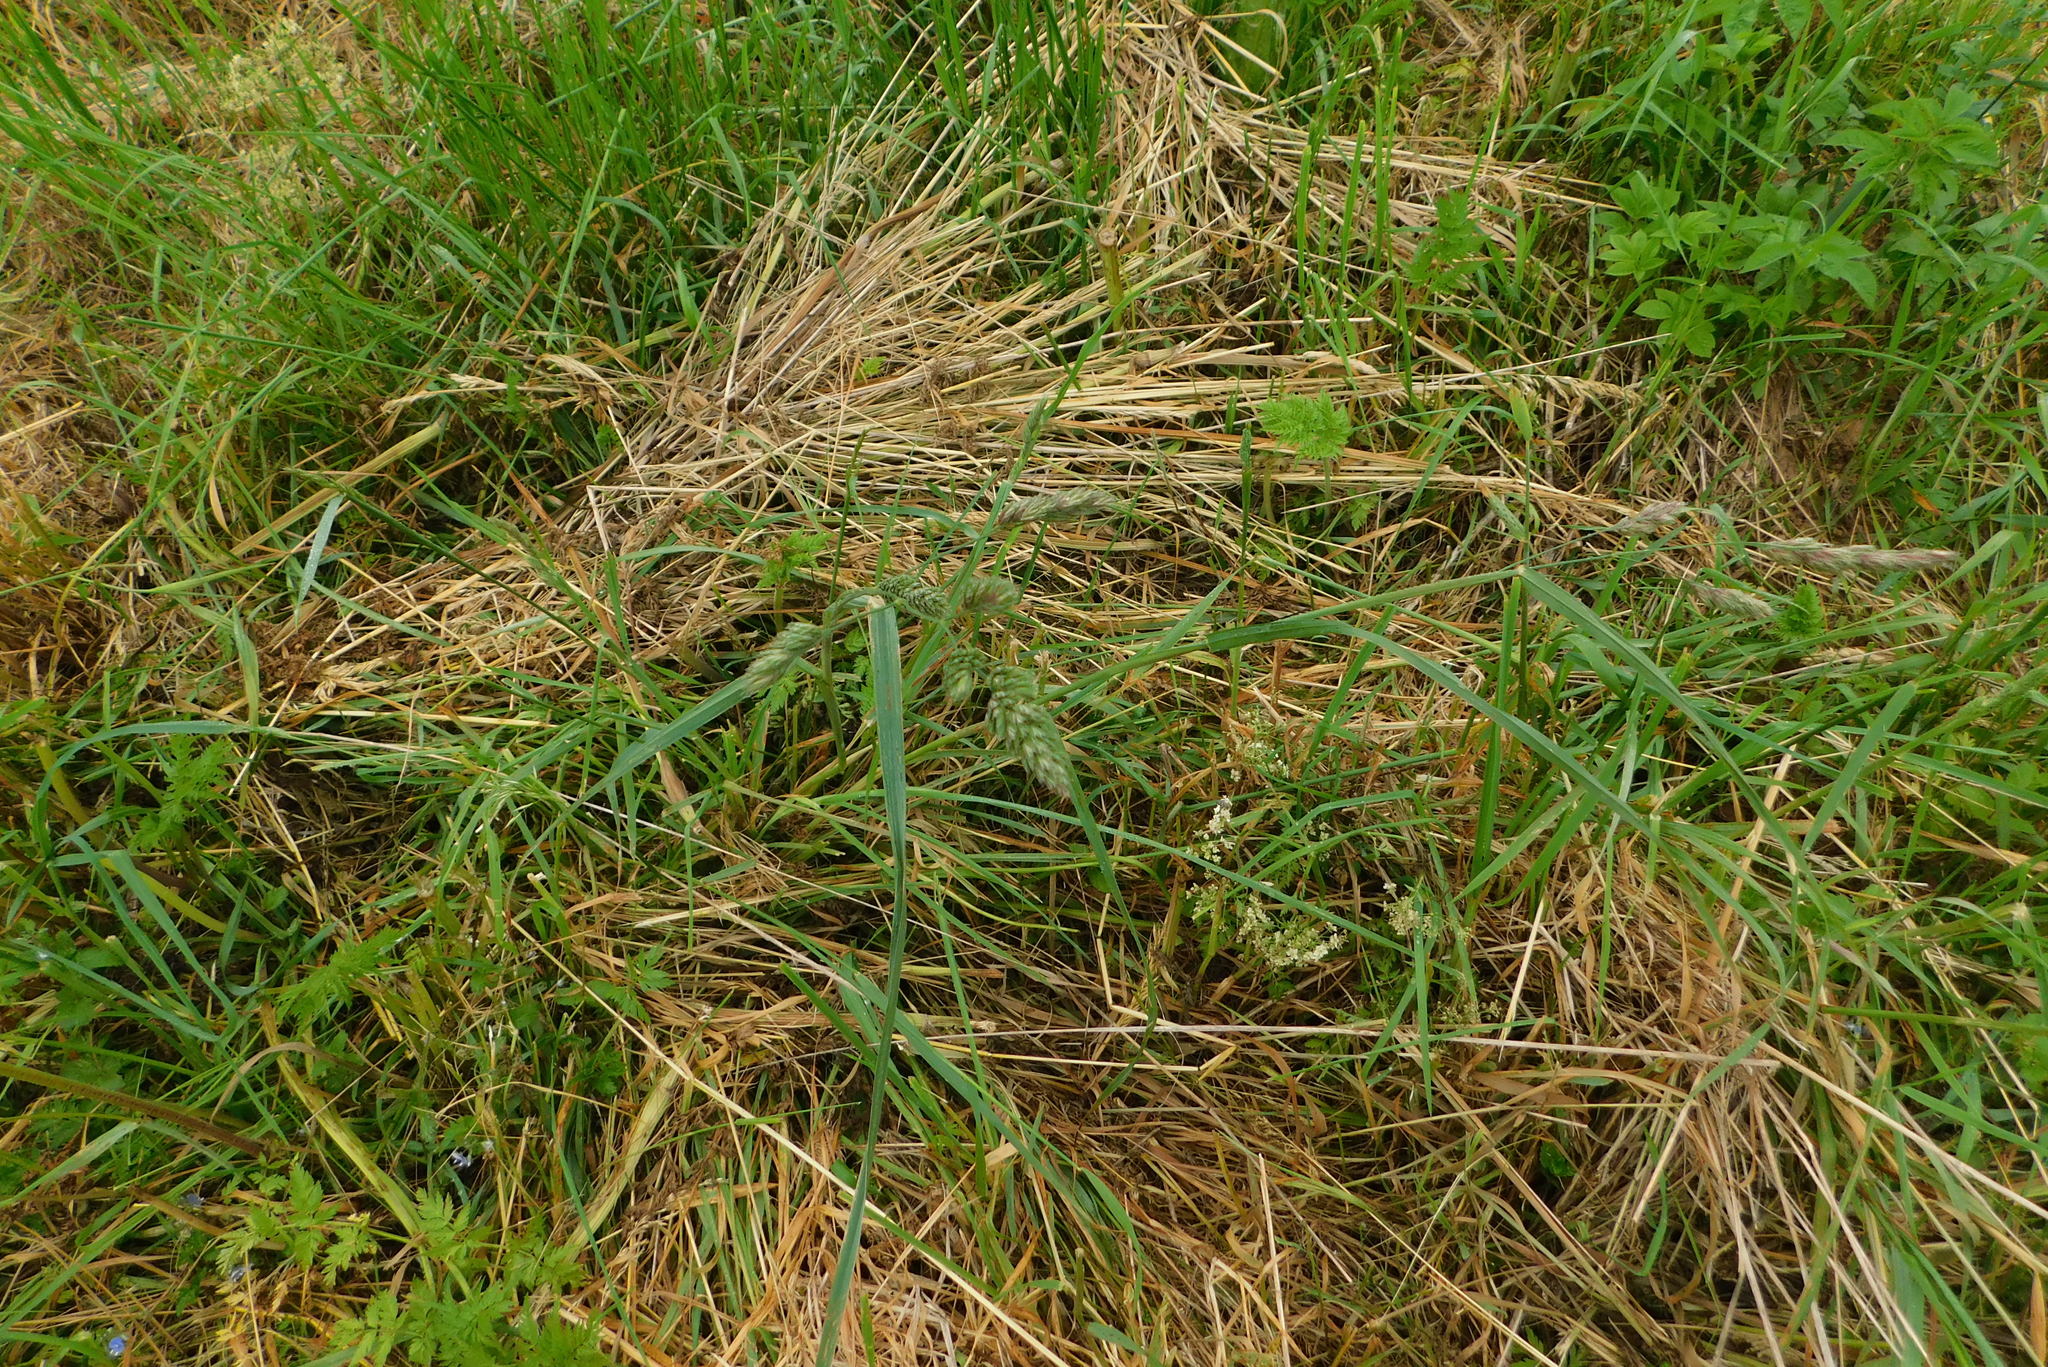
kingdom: Plantae
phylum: Tracheophyta
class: Liliopsida
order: Poales
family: Poaceae
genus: Dactylis
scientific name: Dactylis glomerata
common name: Orchardgrass
